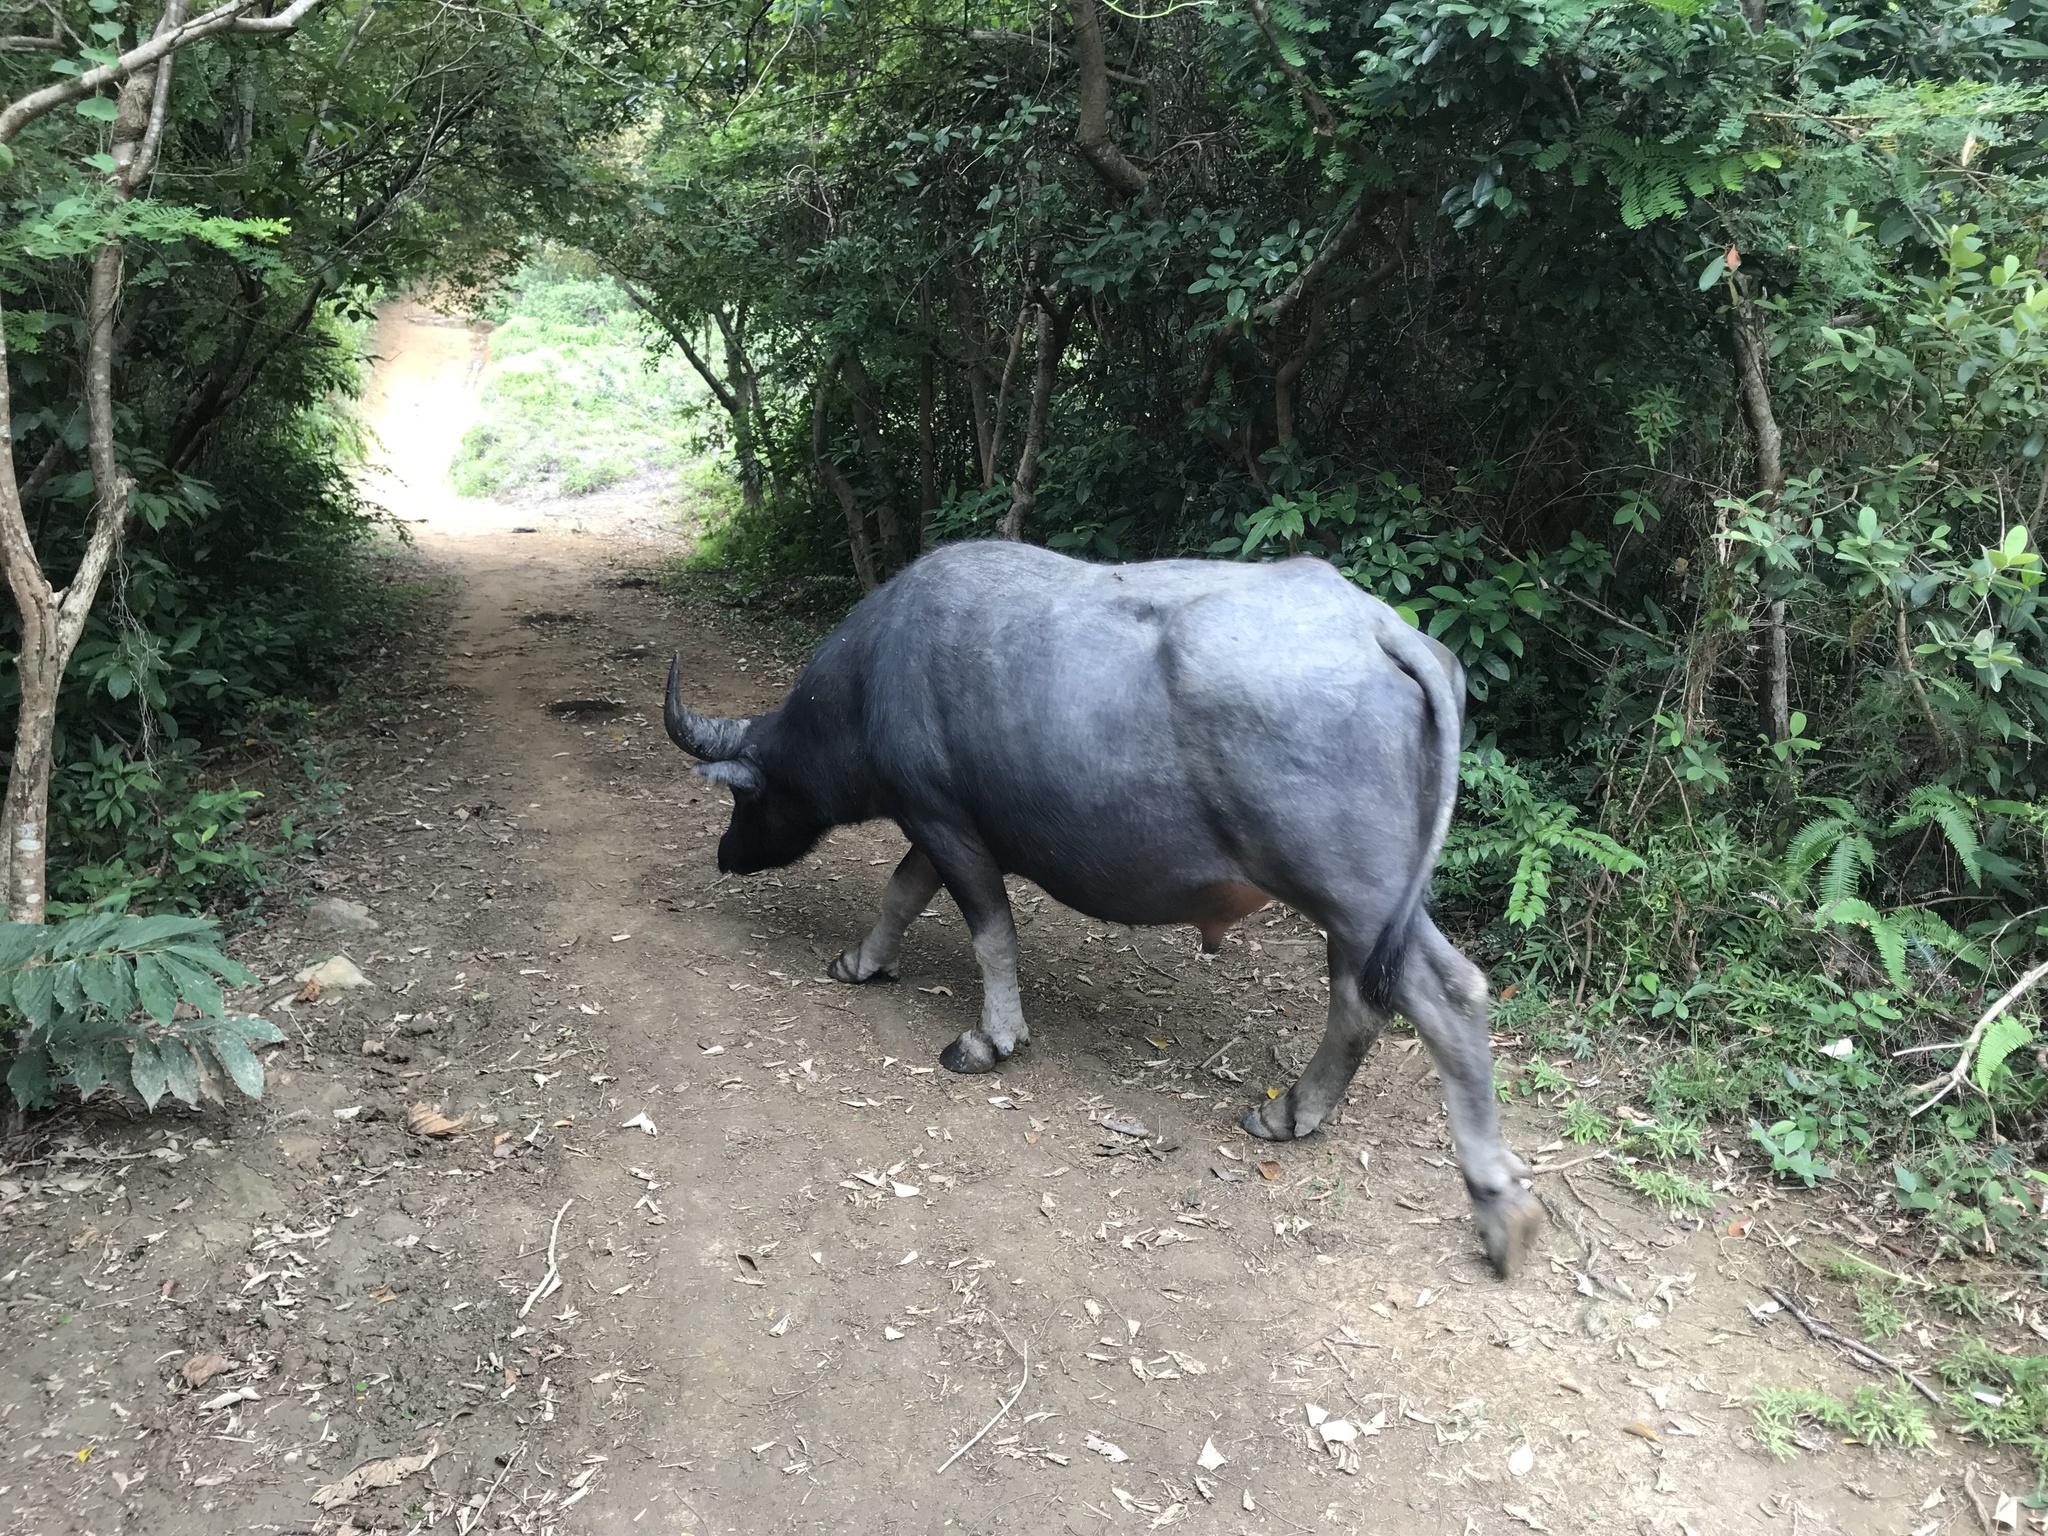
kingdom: Animalia
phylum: Chordata
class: Mammalia
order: Artiodactyla
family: Bovidae
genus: Bubalus
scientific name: Bubalus bubalis
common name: Water buffalo
